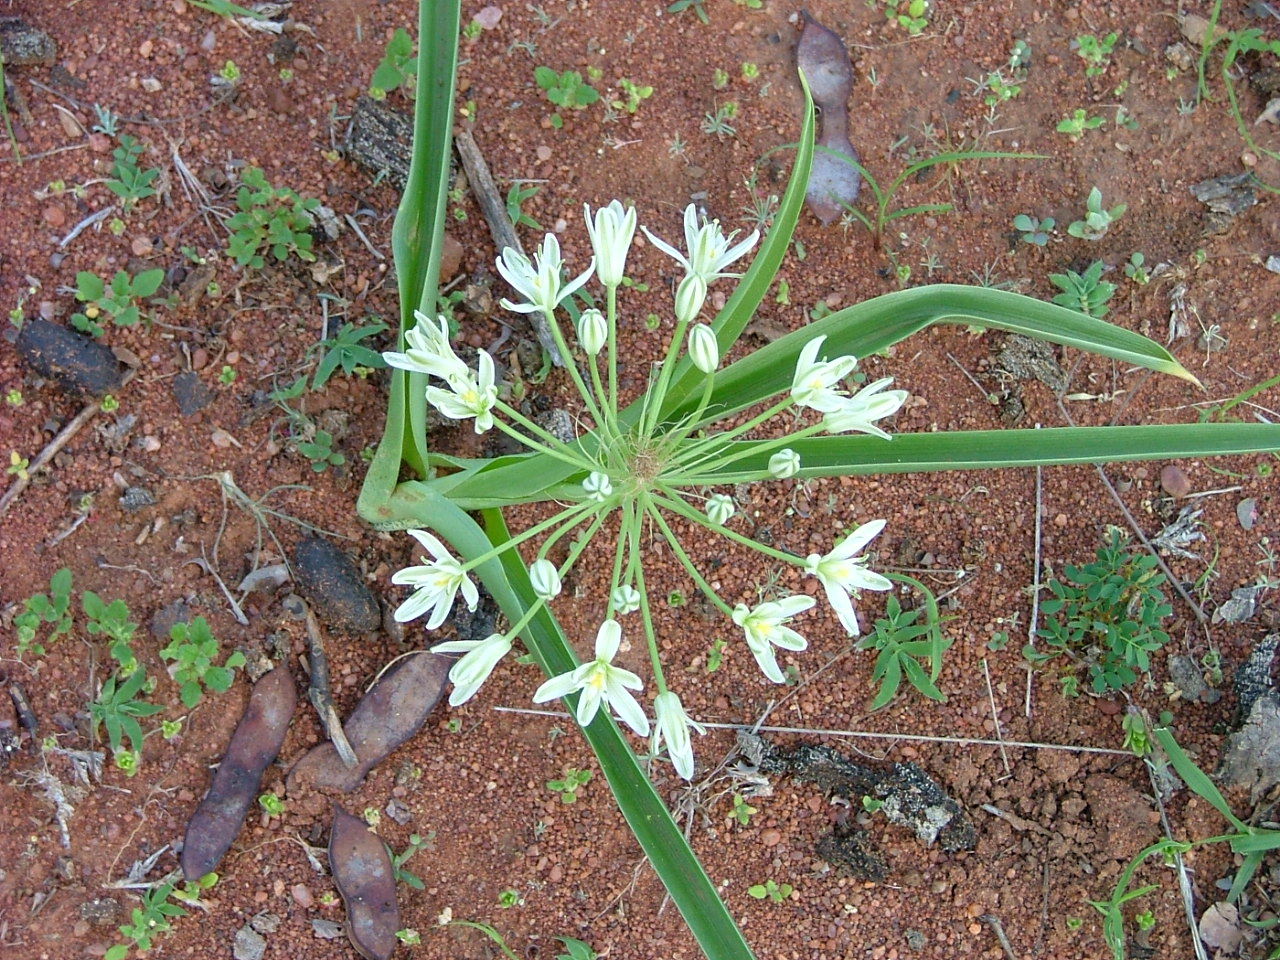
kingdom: Plantae
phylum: Tracheophyta
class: Liliopsida
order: Asparagales
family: Asparagaceae
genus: Albuca
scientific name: Albuca seineri
